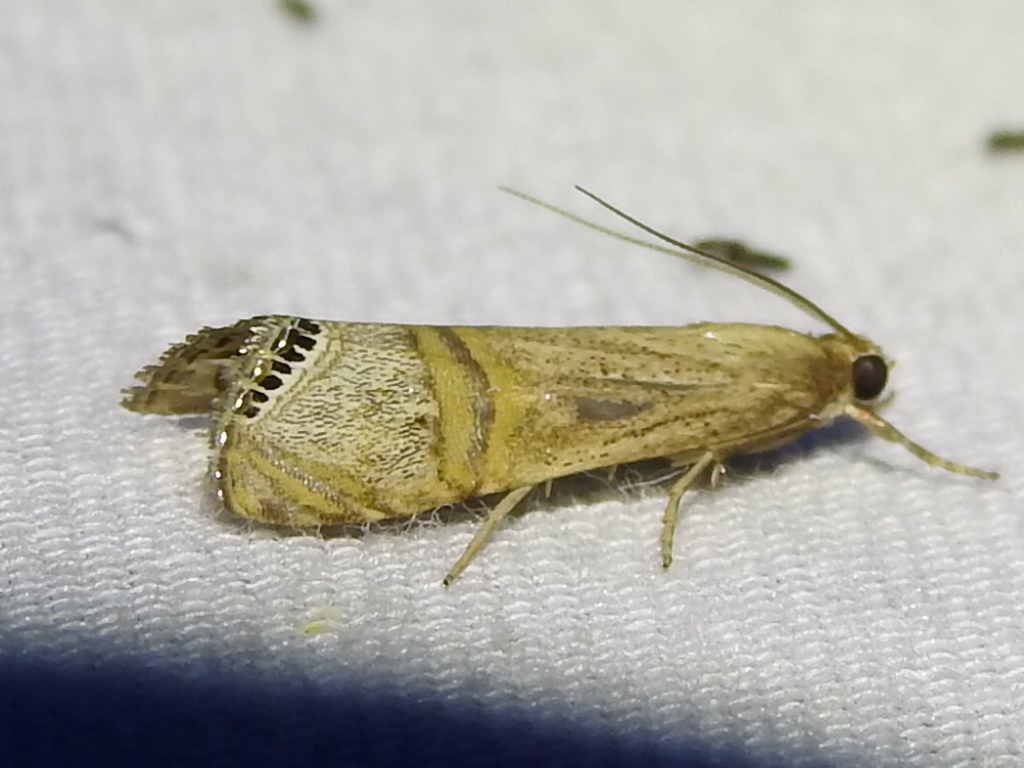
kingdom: Animalia
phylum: Arthropoda
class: Insecta
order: Lepidoptera
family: Crambidae
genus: Euchromius
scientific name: Euchromius ocellea
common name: Necklace veneer moth
